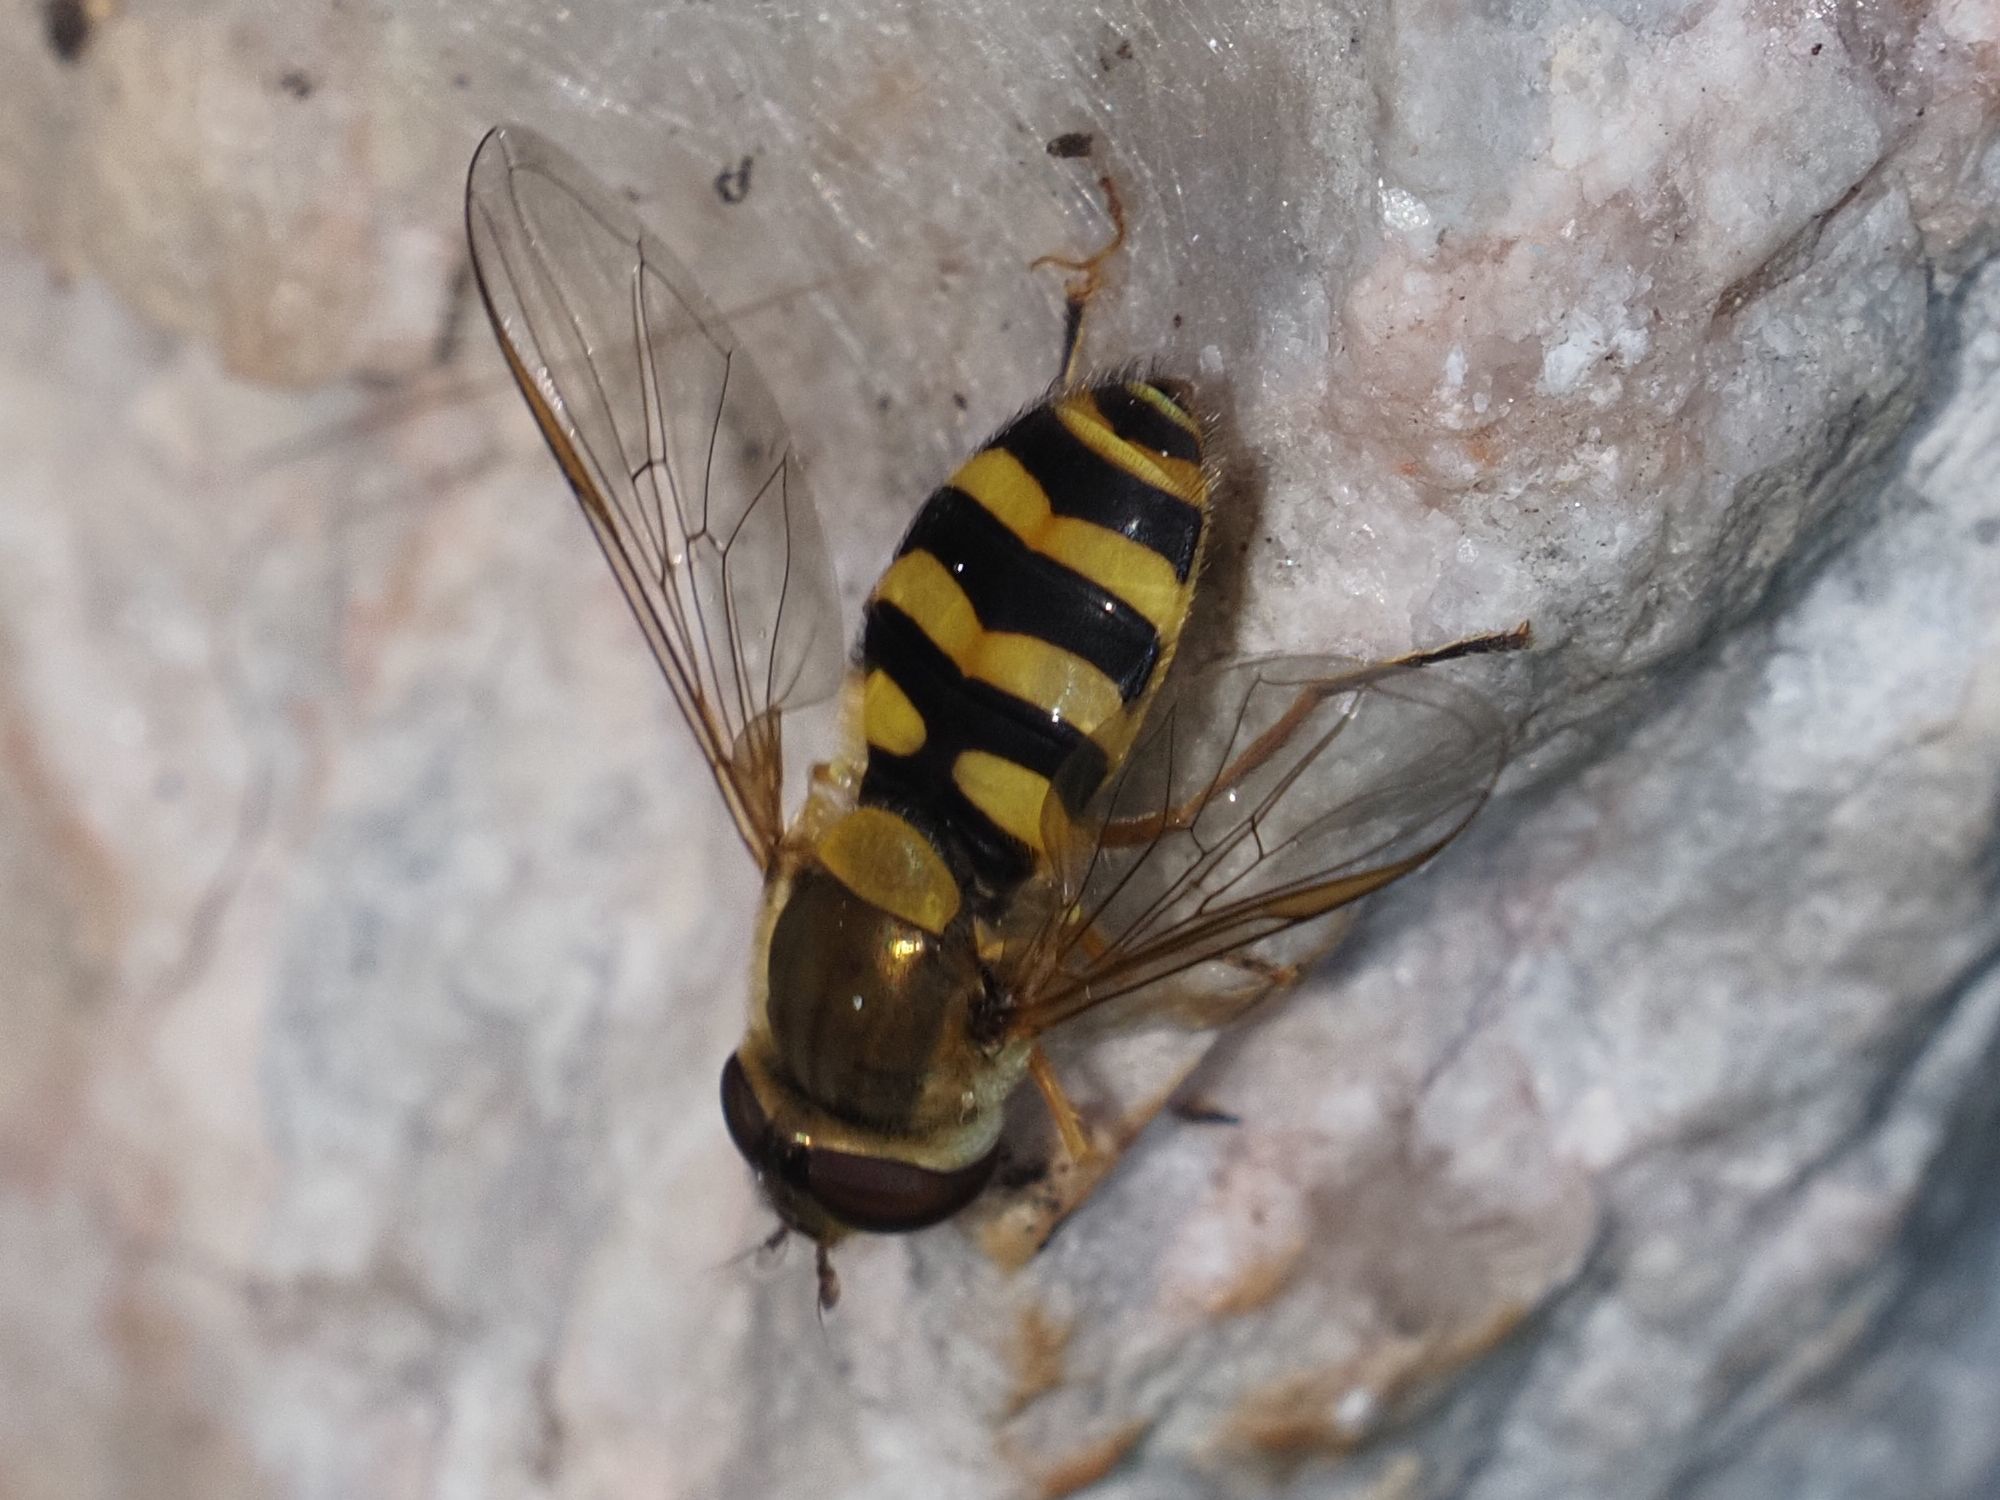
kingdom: Animalia
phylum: Arthropoda
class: Insecta
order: Diptera
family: Syrphidae
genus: Syrphus
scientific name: Syrphus
